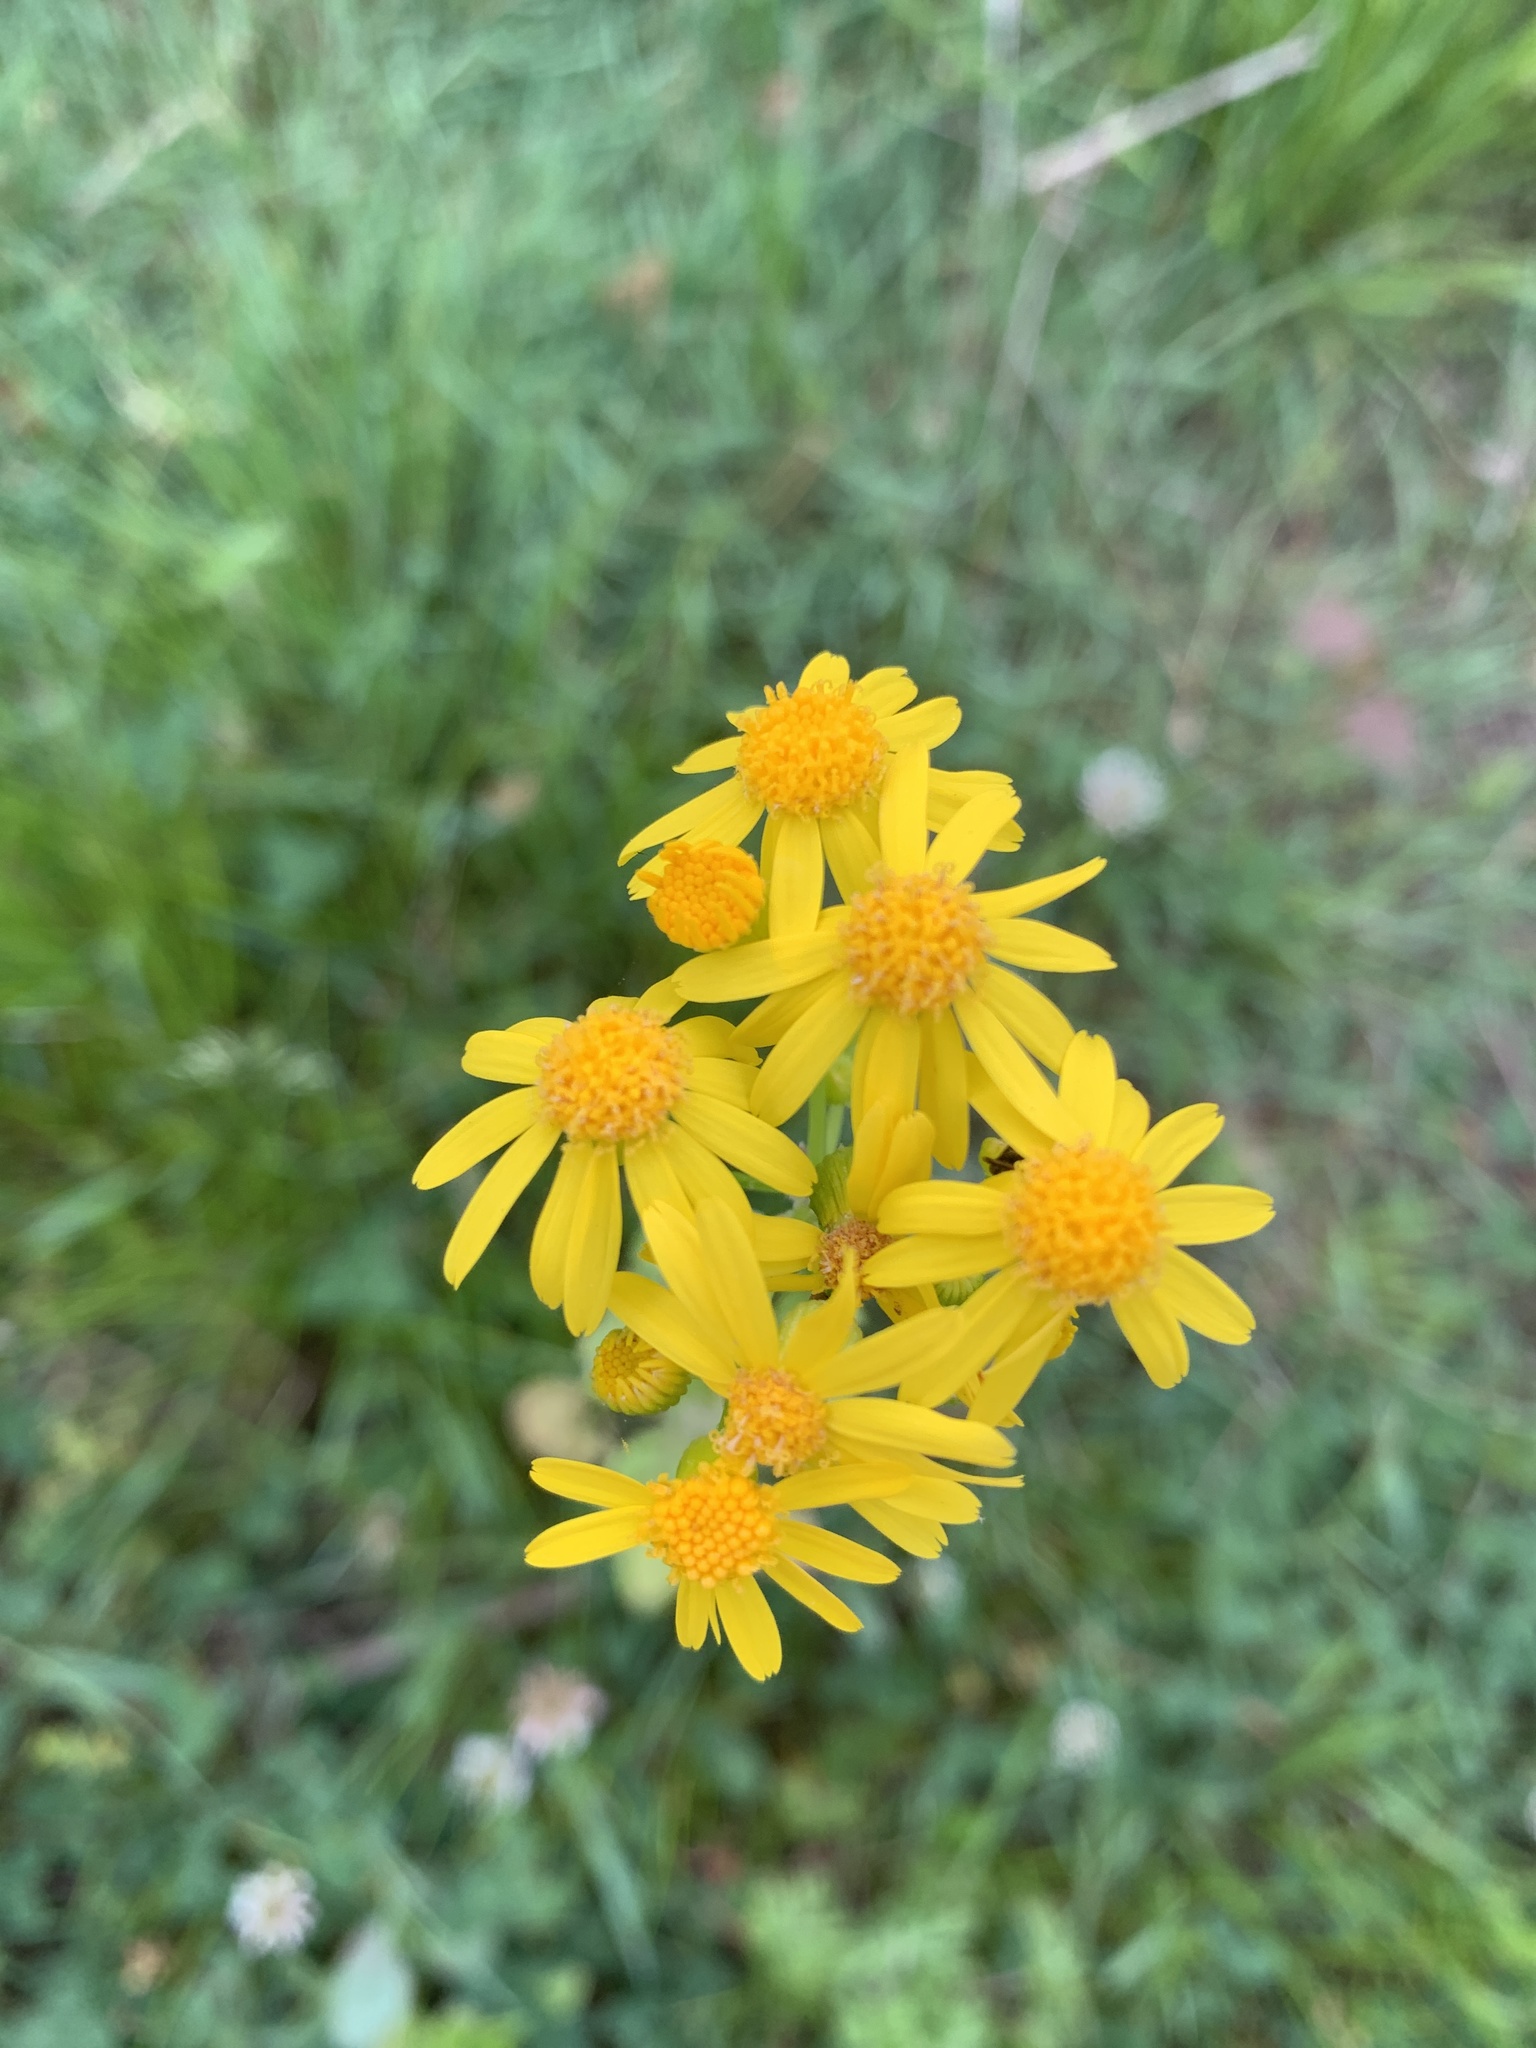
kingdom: Plantae
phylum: Tracheophyta
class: Magnoliopsida
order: Asterales
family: Asteraceae
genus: Packera
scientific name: Packera glabella
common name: Butterweed
